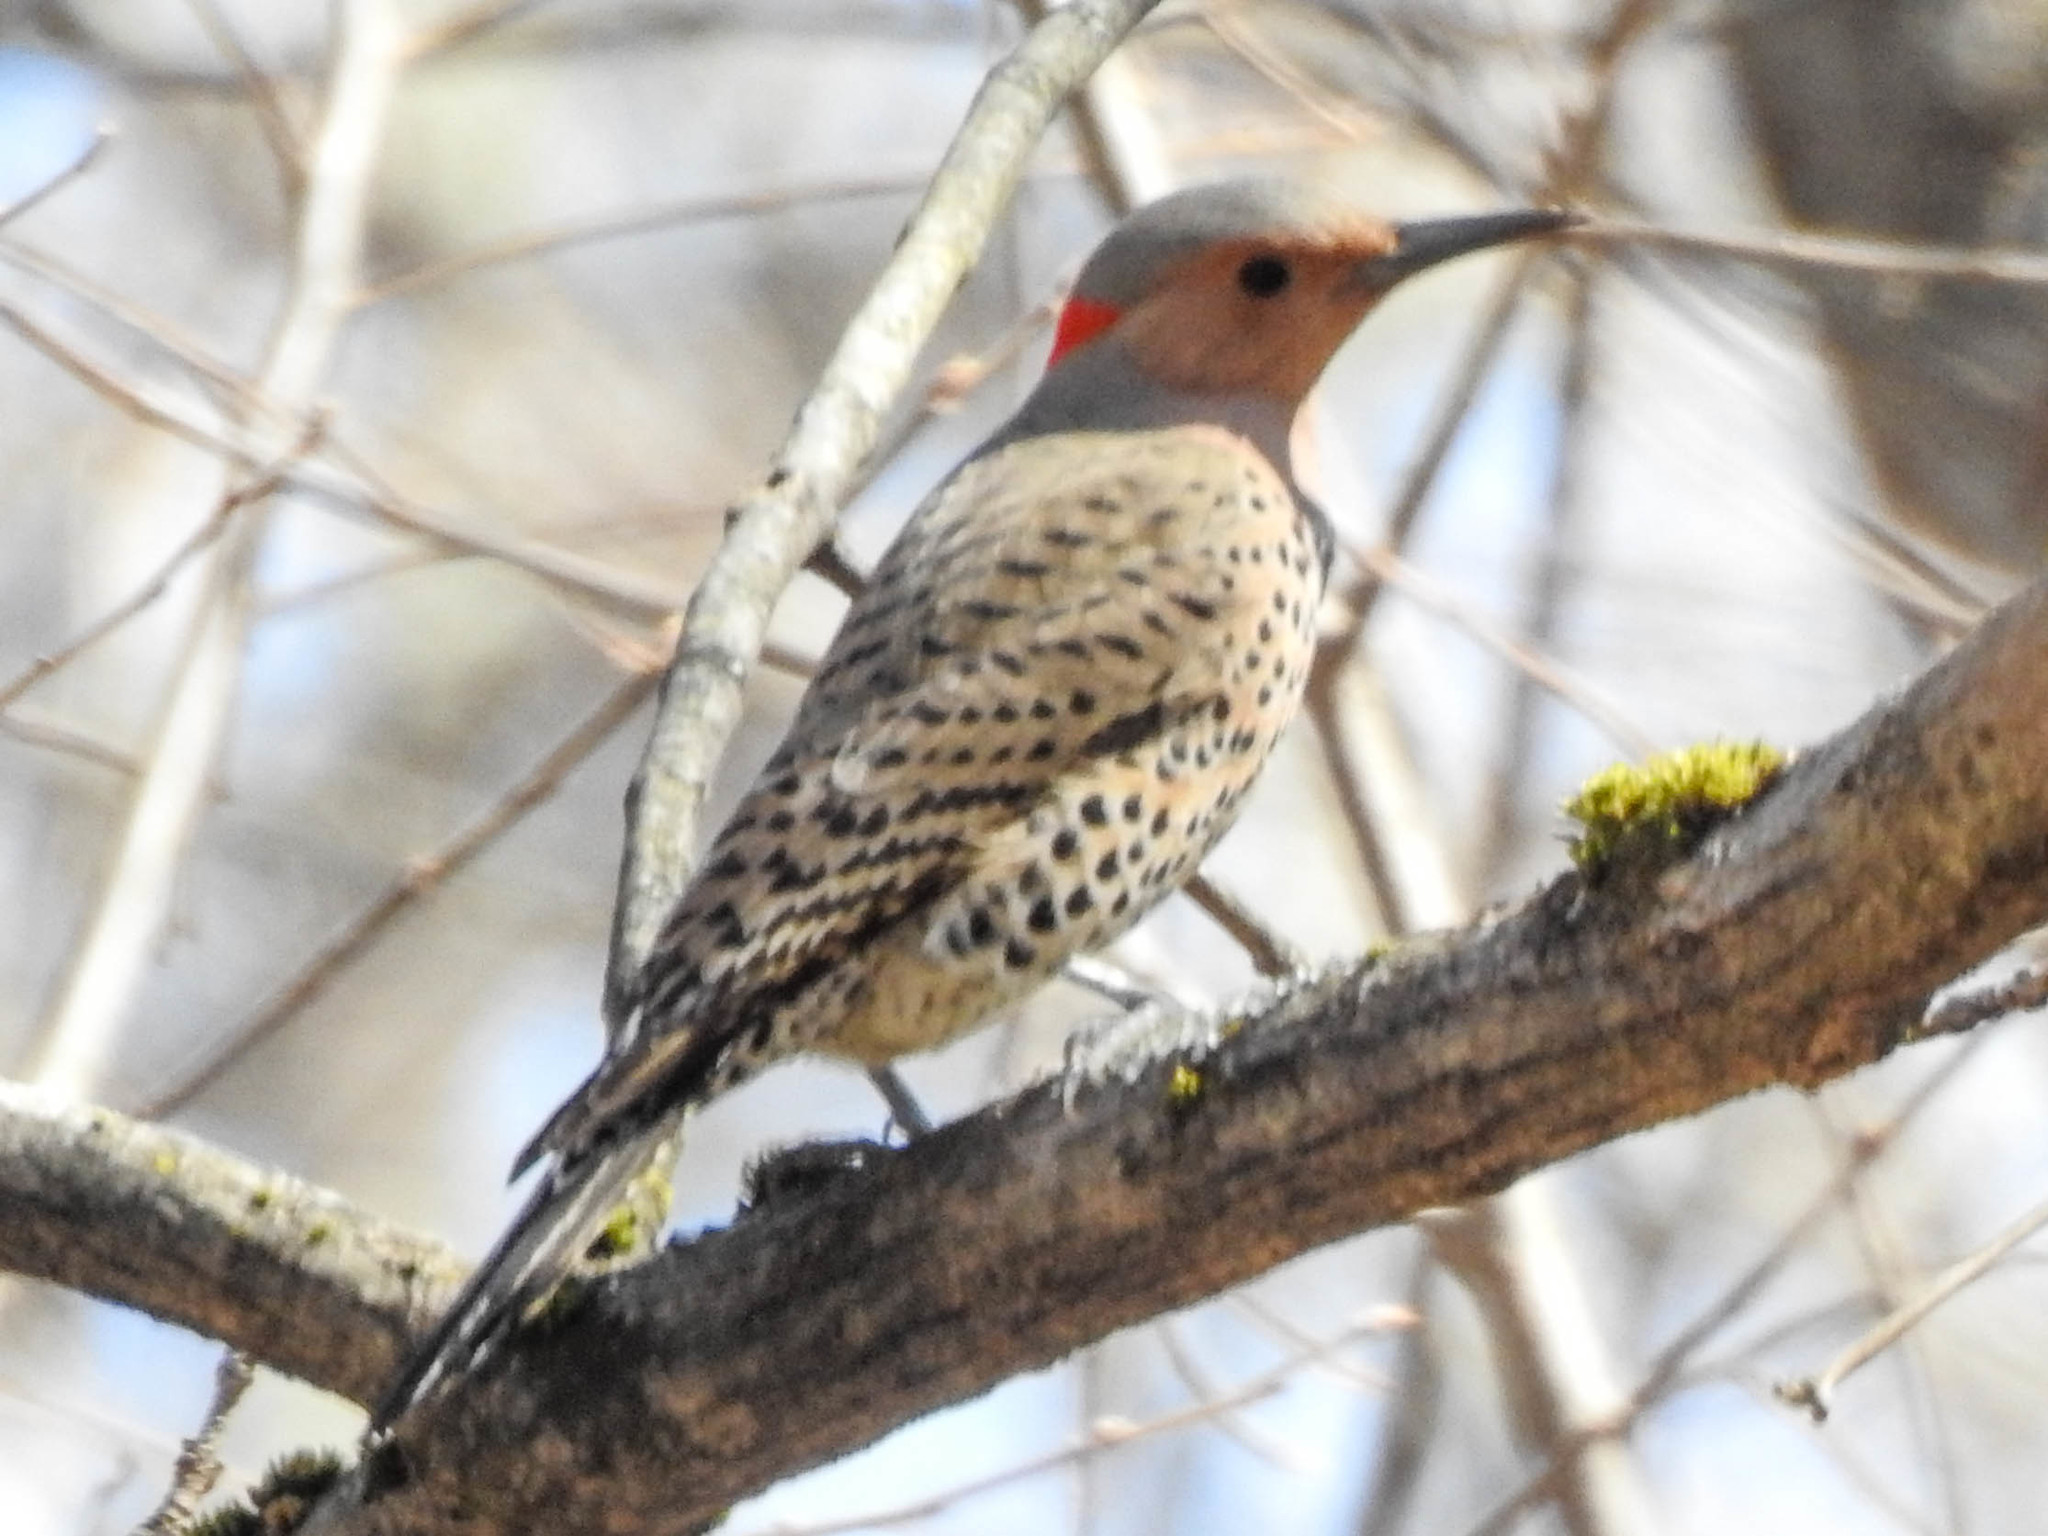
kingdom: Animalia
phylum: Chordata
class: Aves
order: Piciformes
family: Picidae
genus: Colaptes
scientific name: Colaptes auratus
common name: Northern flicker
